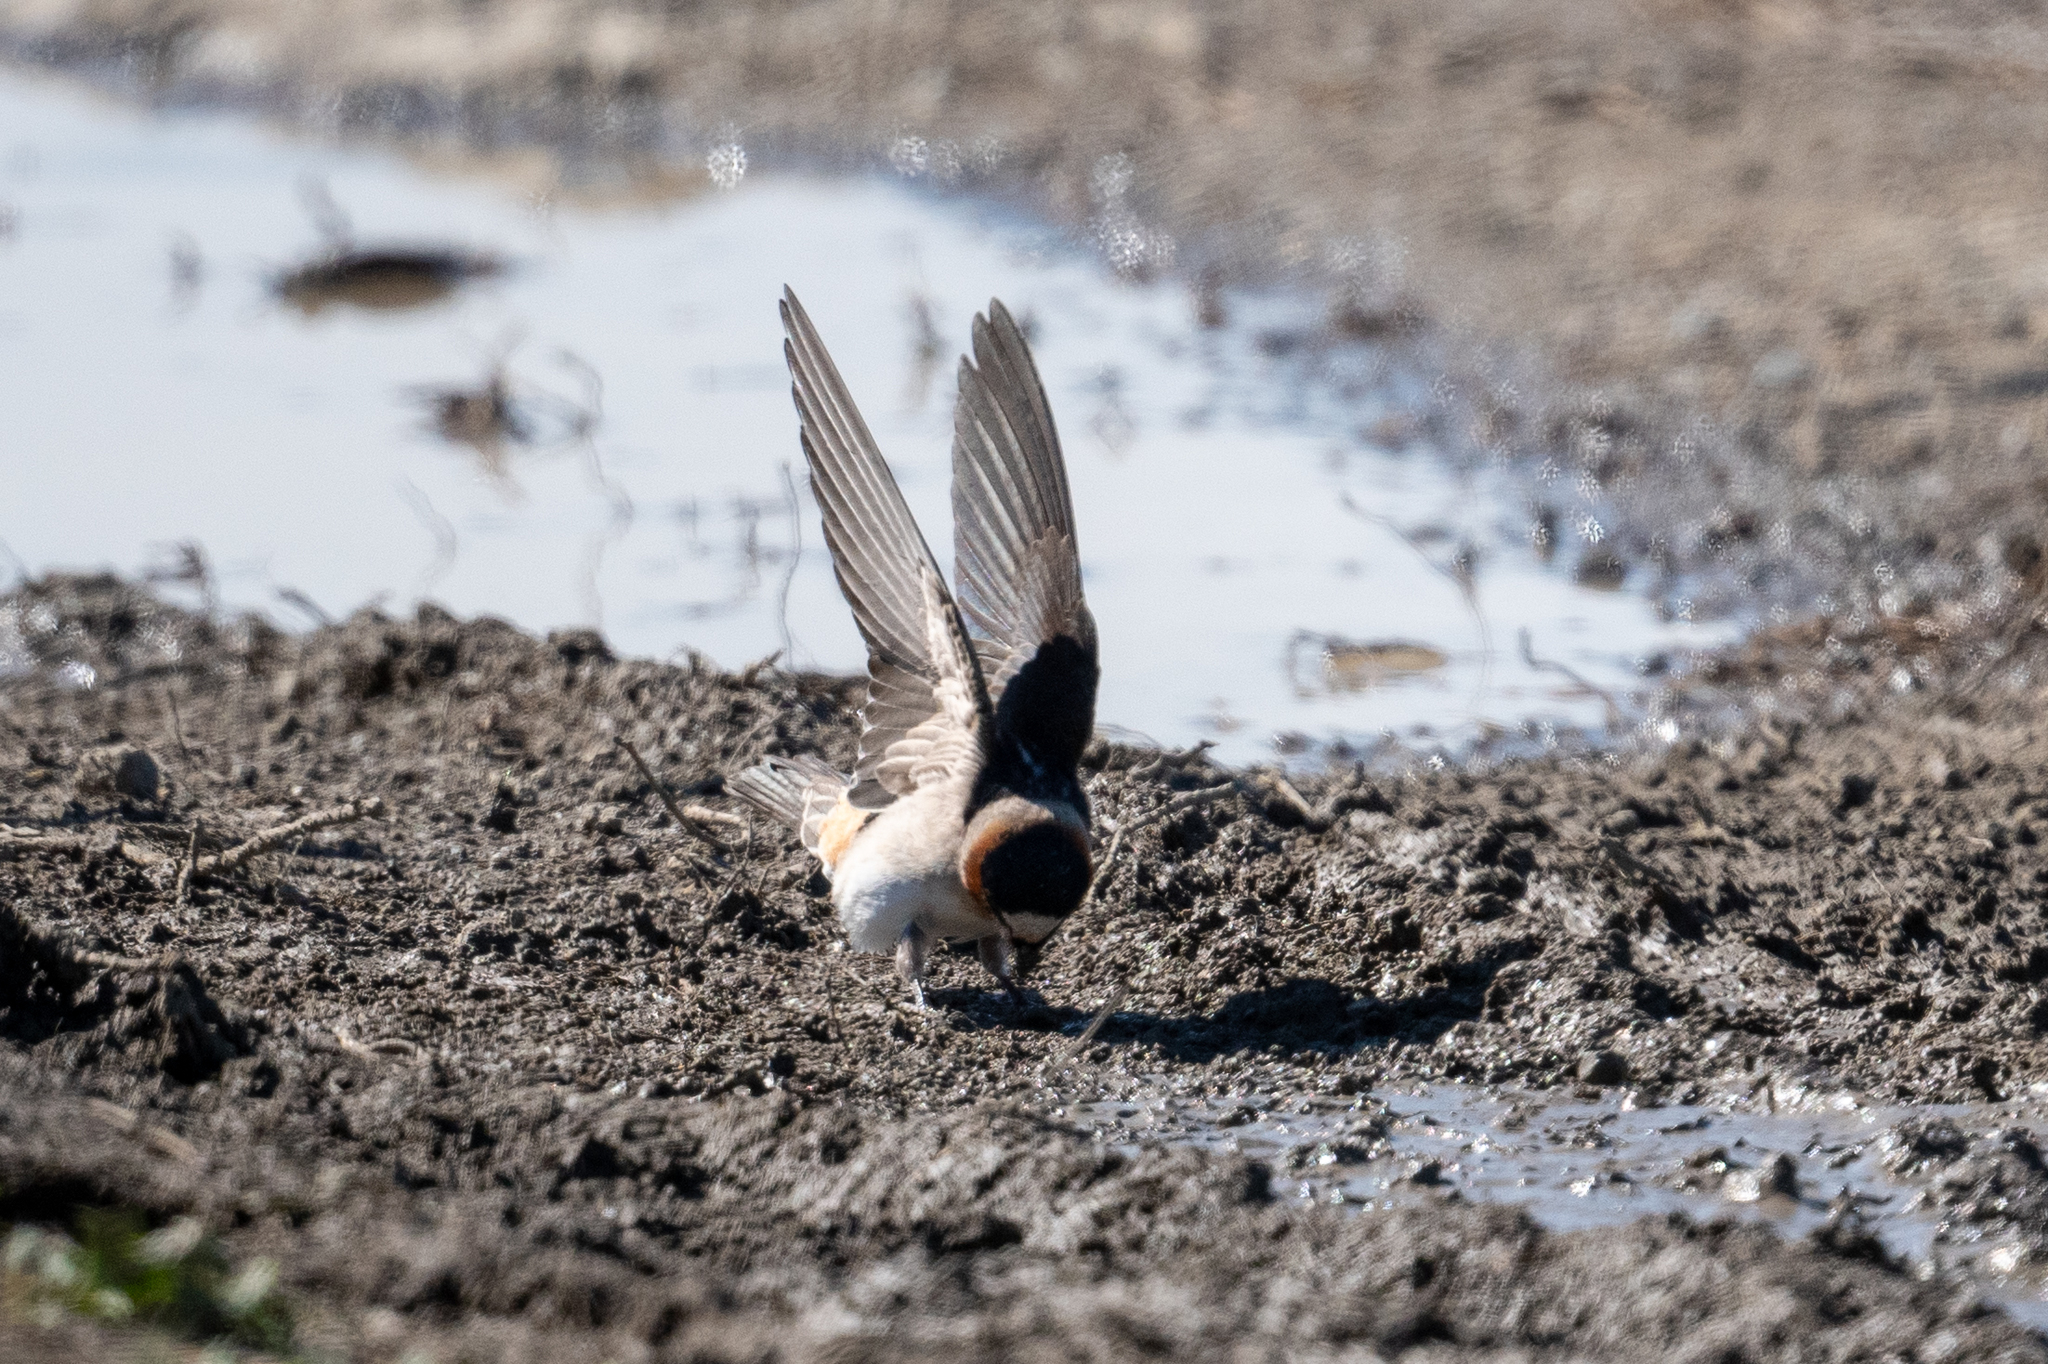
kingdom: Animalia
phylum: Chordata
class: Aves
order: Passeriformes
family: Hirundinidae
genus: Petrochelidon
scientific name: Petrochelidon pyrrhonota
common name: American cliff swallow
